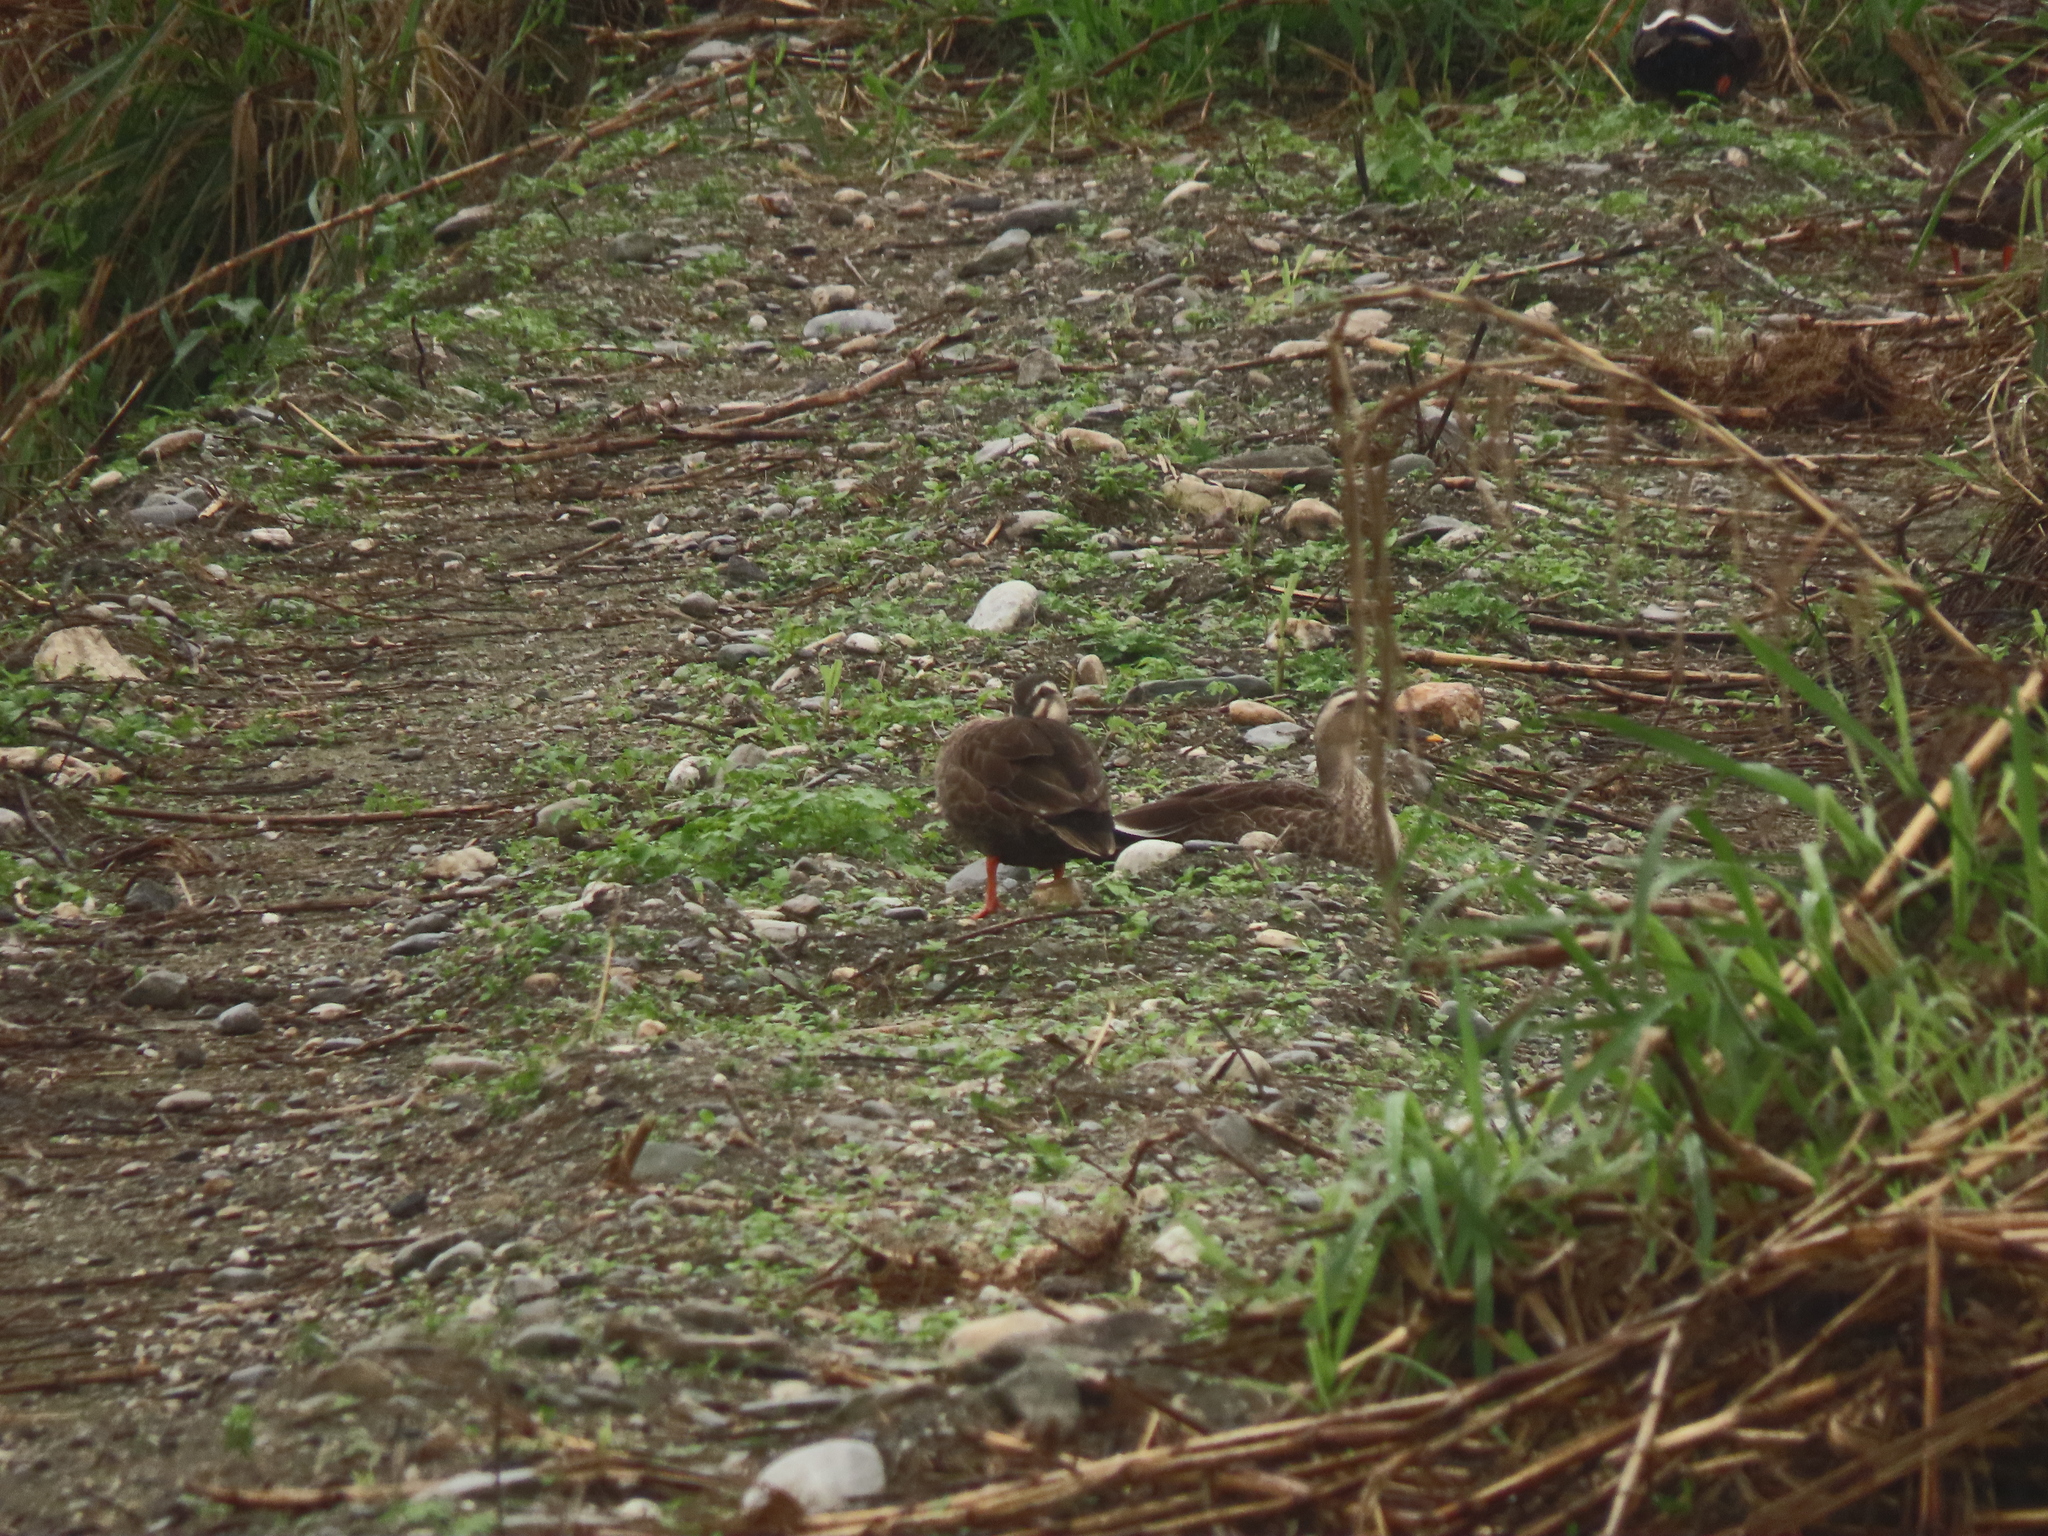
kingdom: Animalia
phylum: Chordata
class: Aves
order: Anseriformes
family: Anatidae
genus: Anas
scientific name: Anas zonorhyncha
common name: Eastern spot-billed duck
